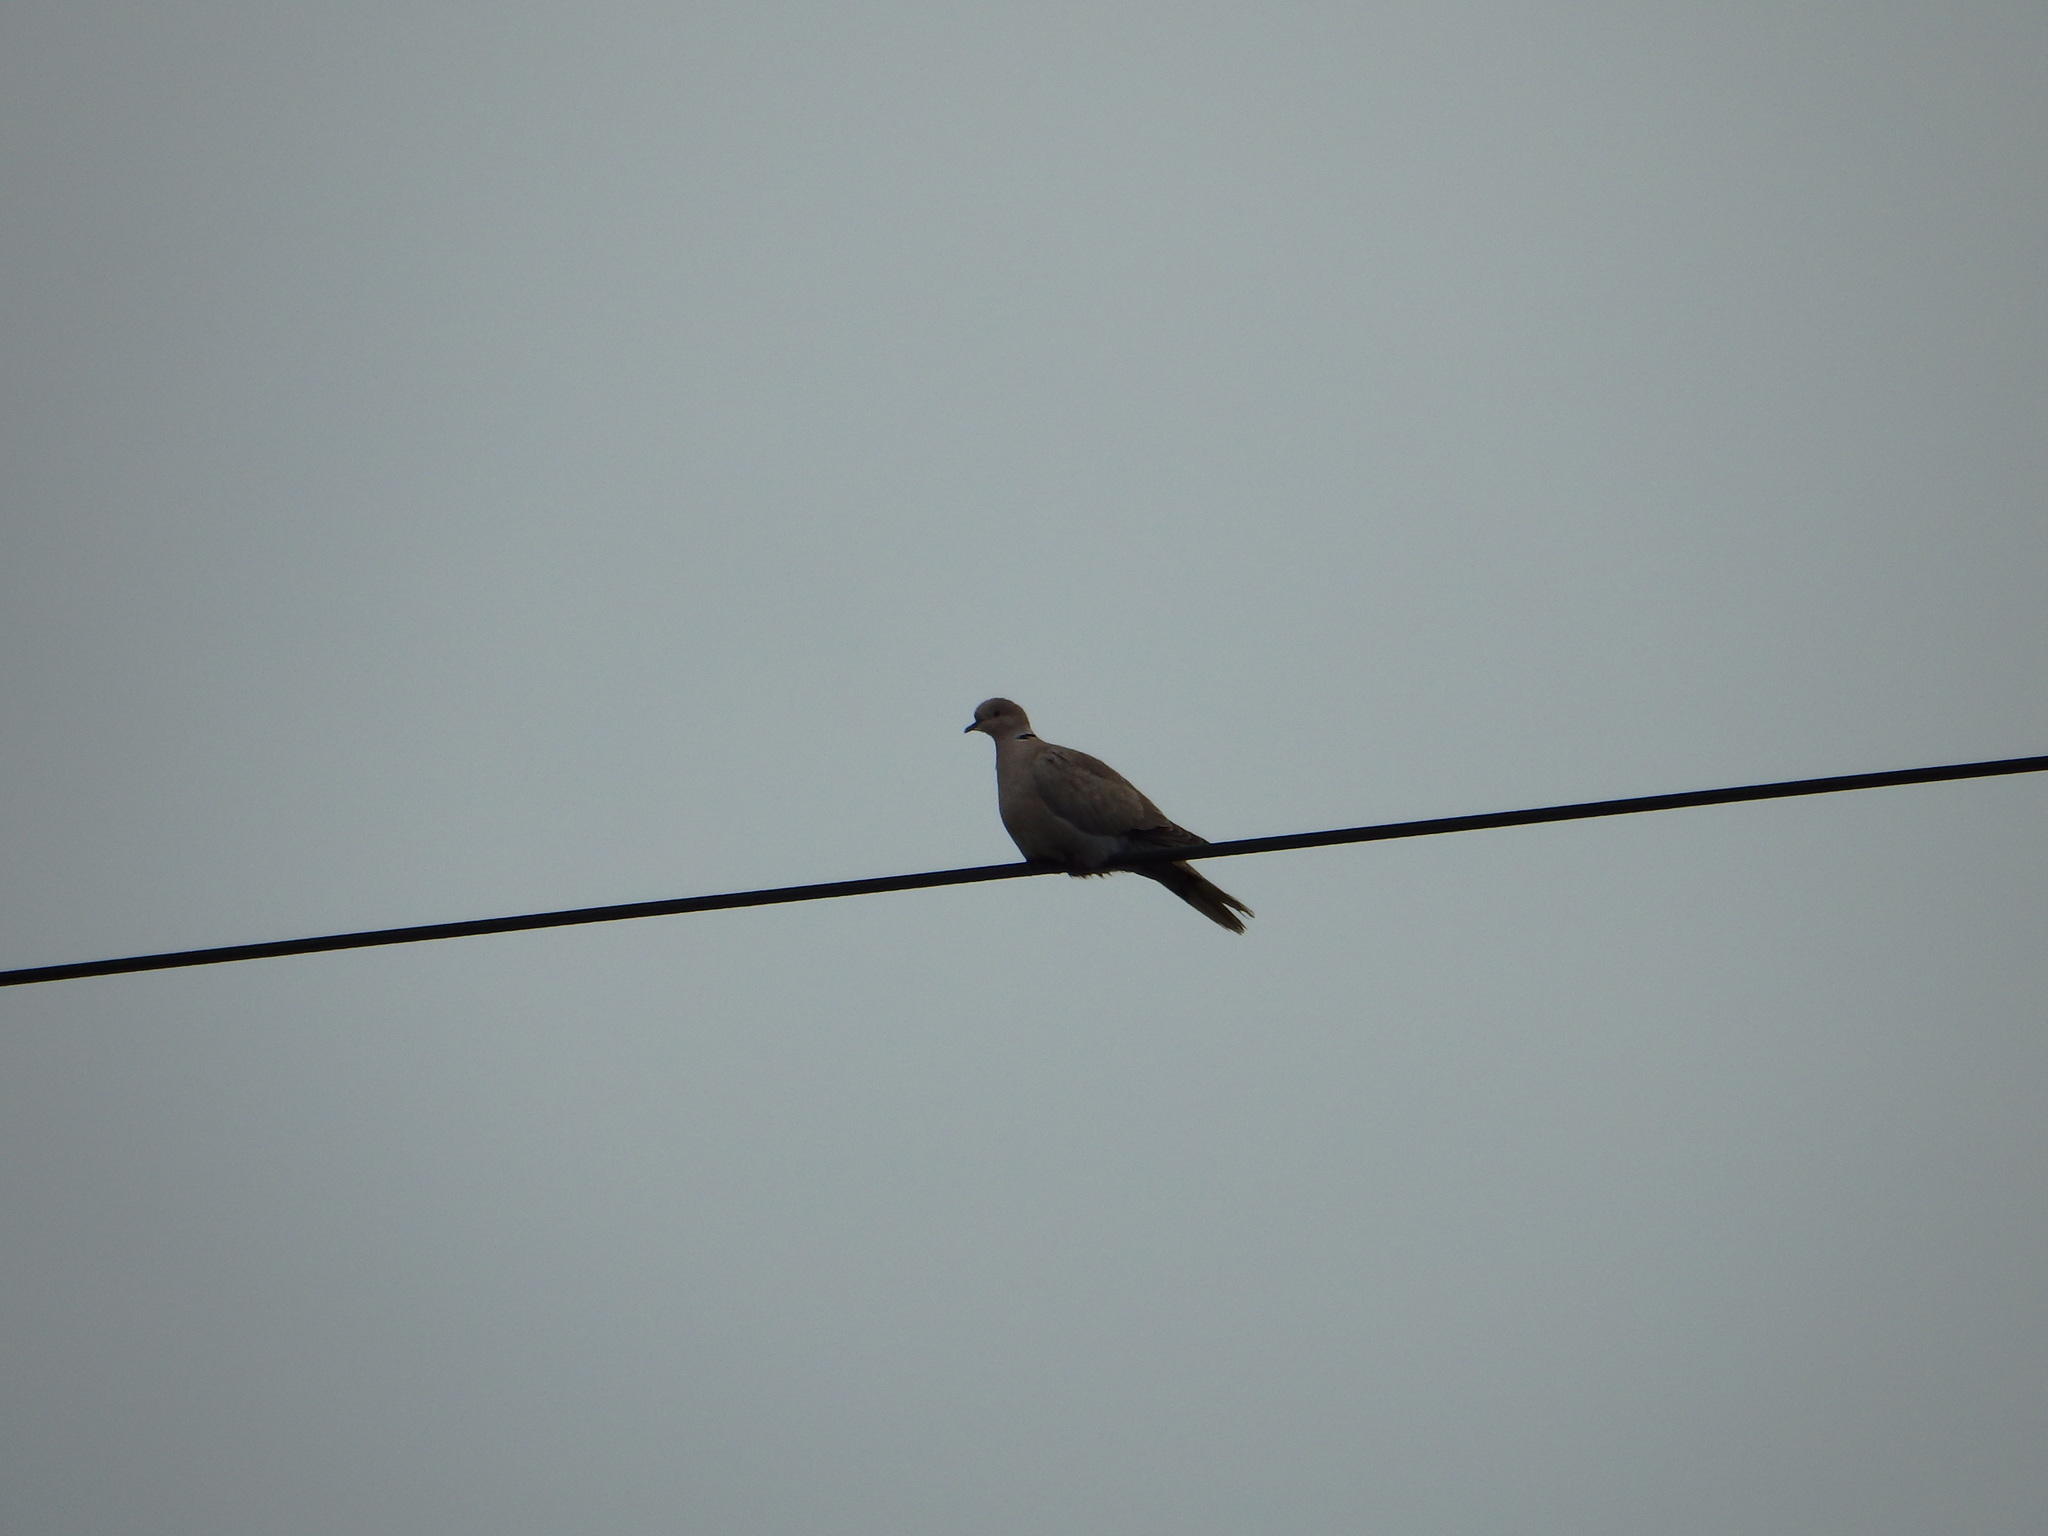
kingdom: Animalia
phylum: Chordata
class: Aves
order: Columbiformes
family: Columbidae
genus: Streptopelia
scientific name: Streptopelia decaocto
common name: Eurasian collared dove
